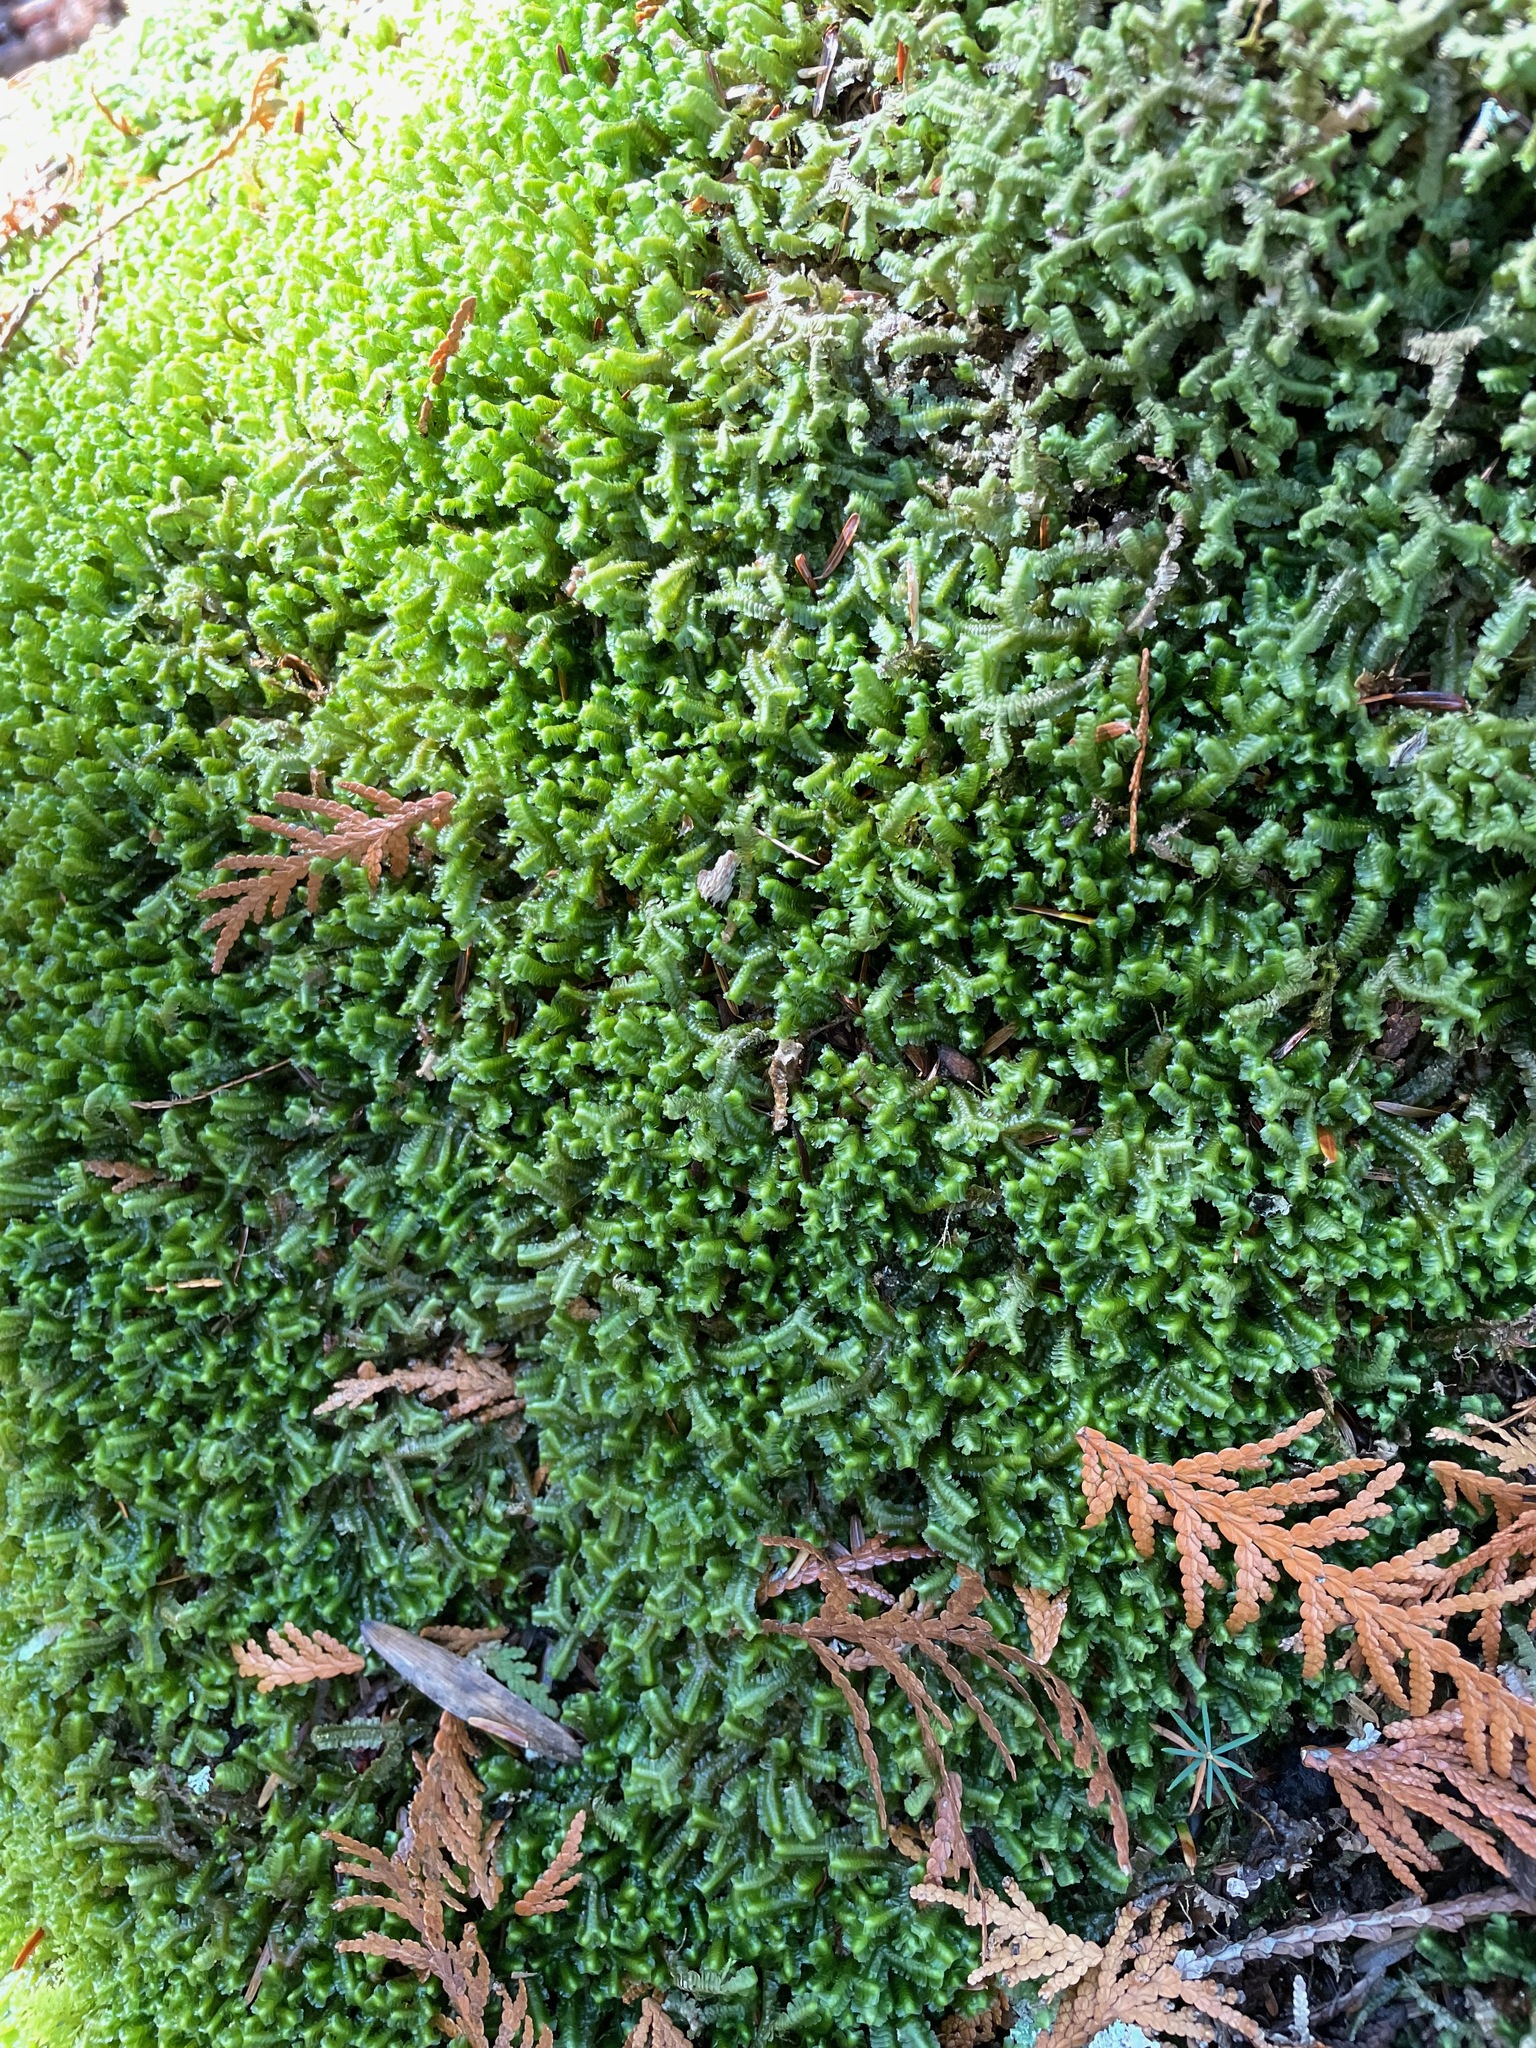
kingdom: Plantae
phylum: Marchantiophyta
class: Jungermanniopsida
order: Jungermanniales
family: Lepidoziaceae
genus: Bazzania
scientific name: Bazzania trilobata
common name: Three-lobed whipwort
